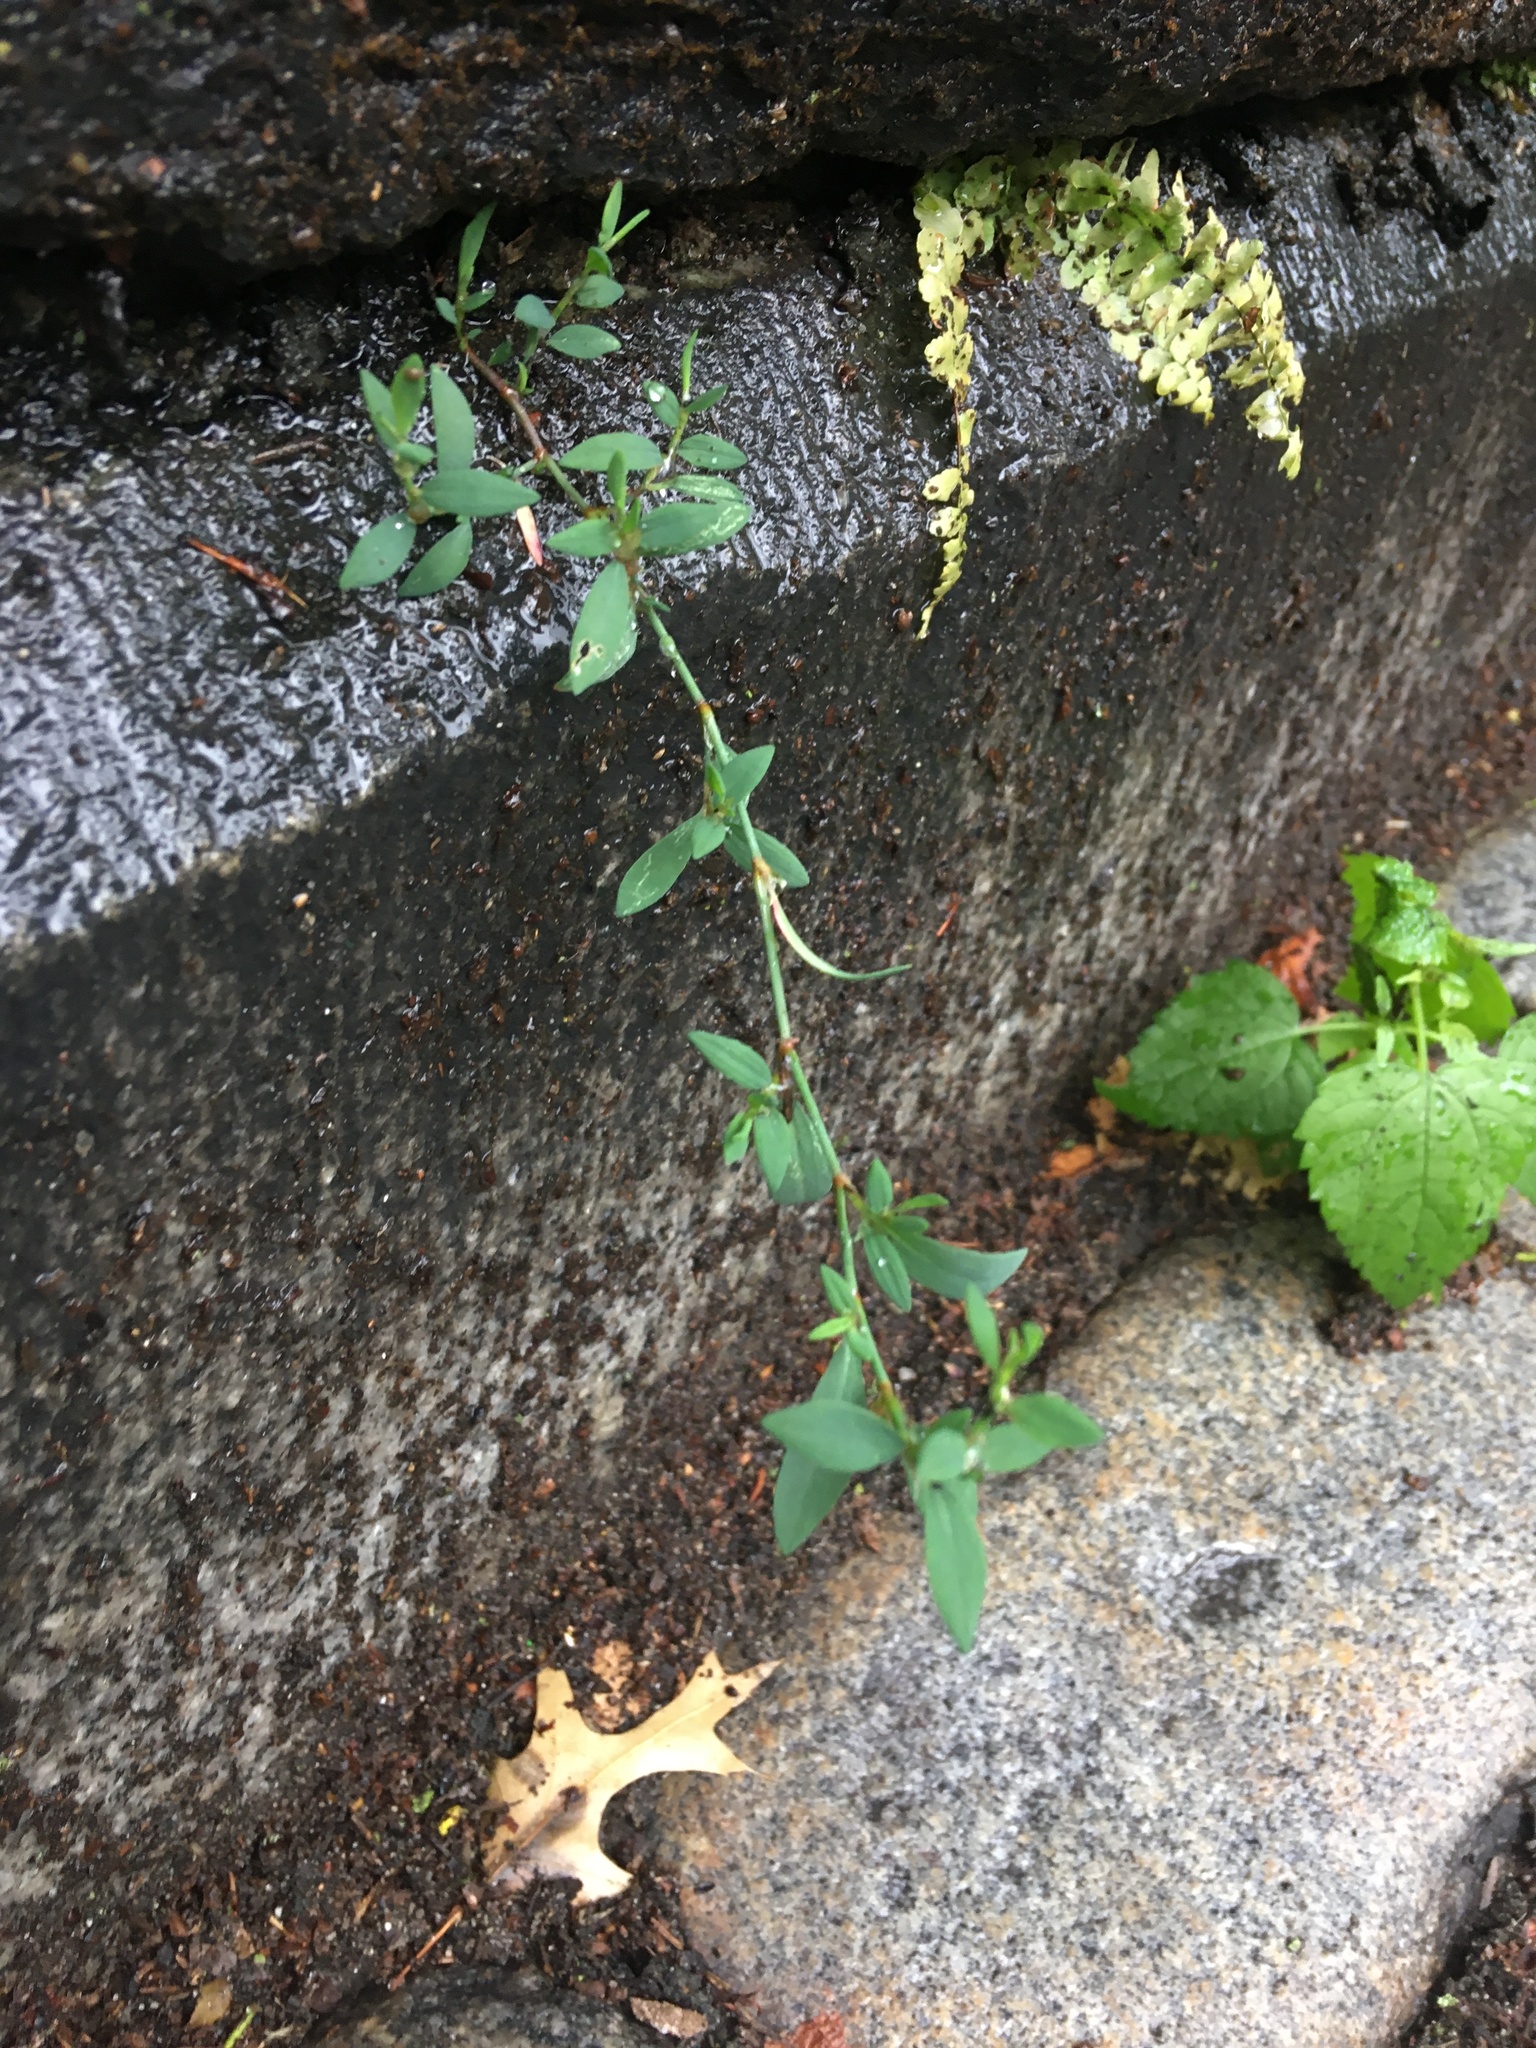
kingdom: Plantae
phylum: Tracheophyta
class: Magnoliopsida
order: Caryophyllales
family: Polygonaceae
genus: Polygonum
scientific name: Polygonum aviculare
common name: Prostrate knotweed
